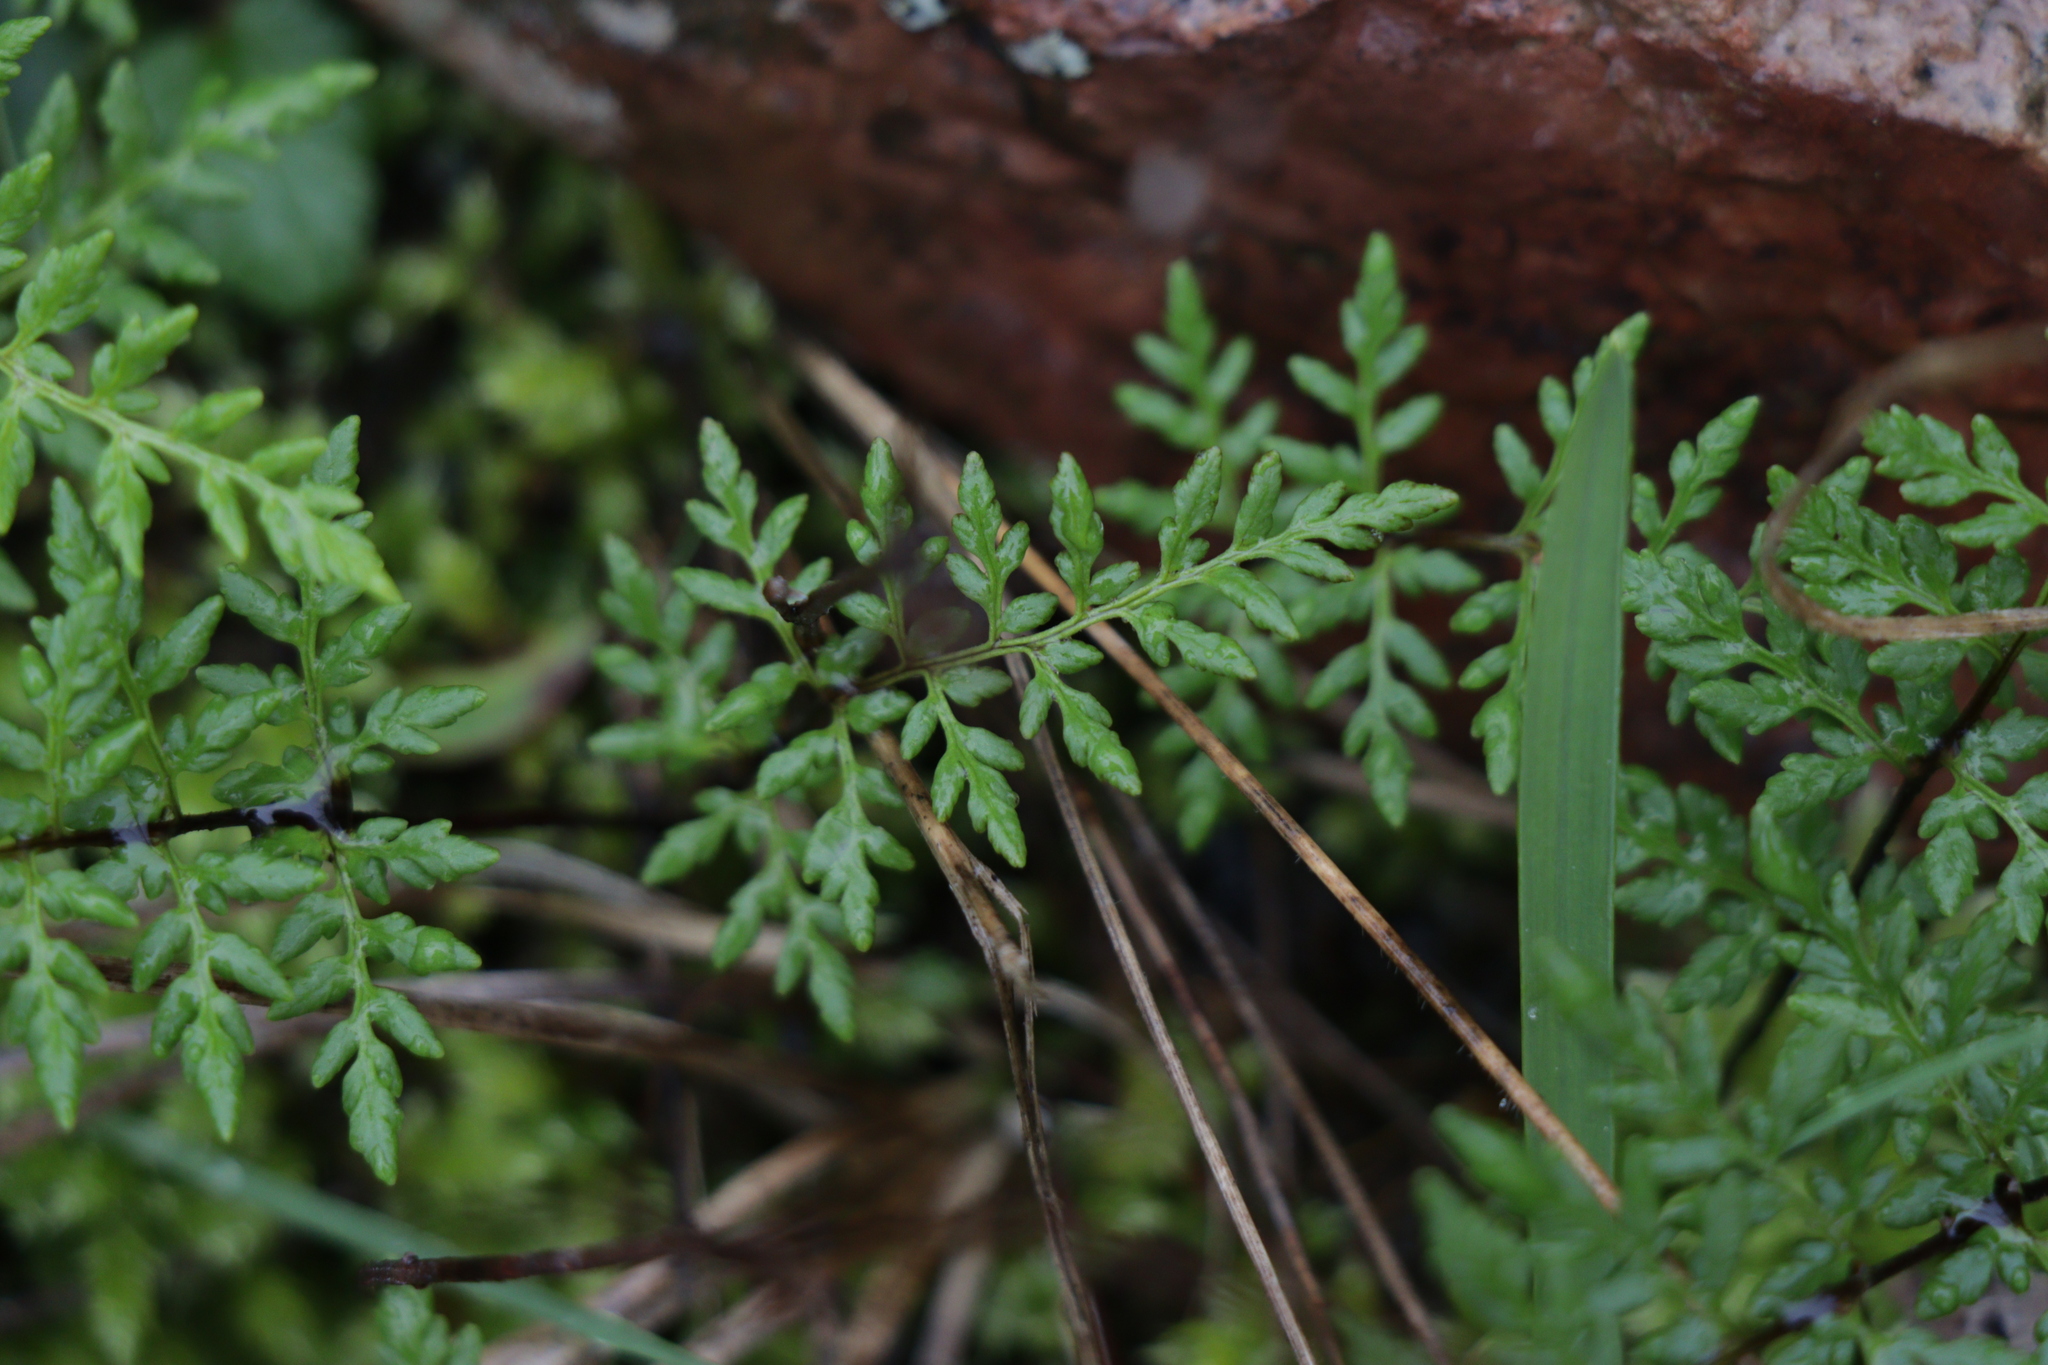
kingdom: Plantae
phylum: Tracheophyta
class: Polypodiopsida
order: Polypodiales
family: Pteridaceae
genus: Cheilanthes
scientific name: Cheilanthes austrotenuifolia
